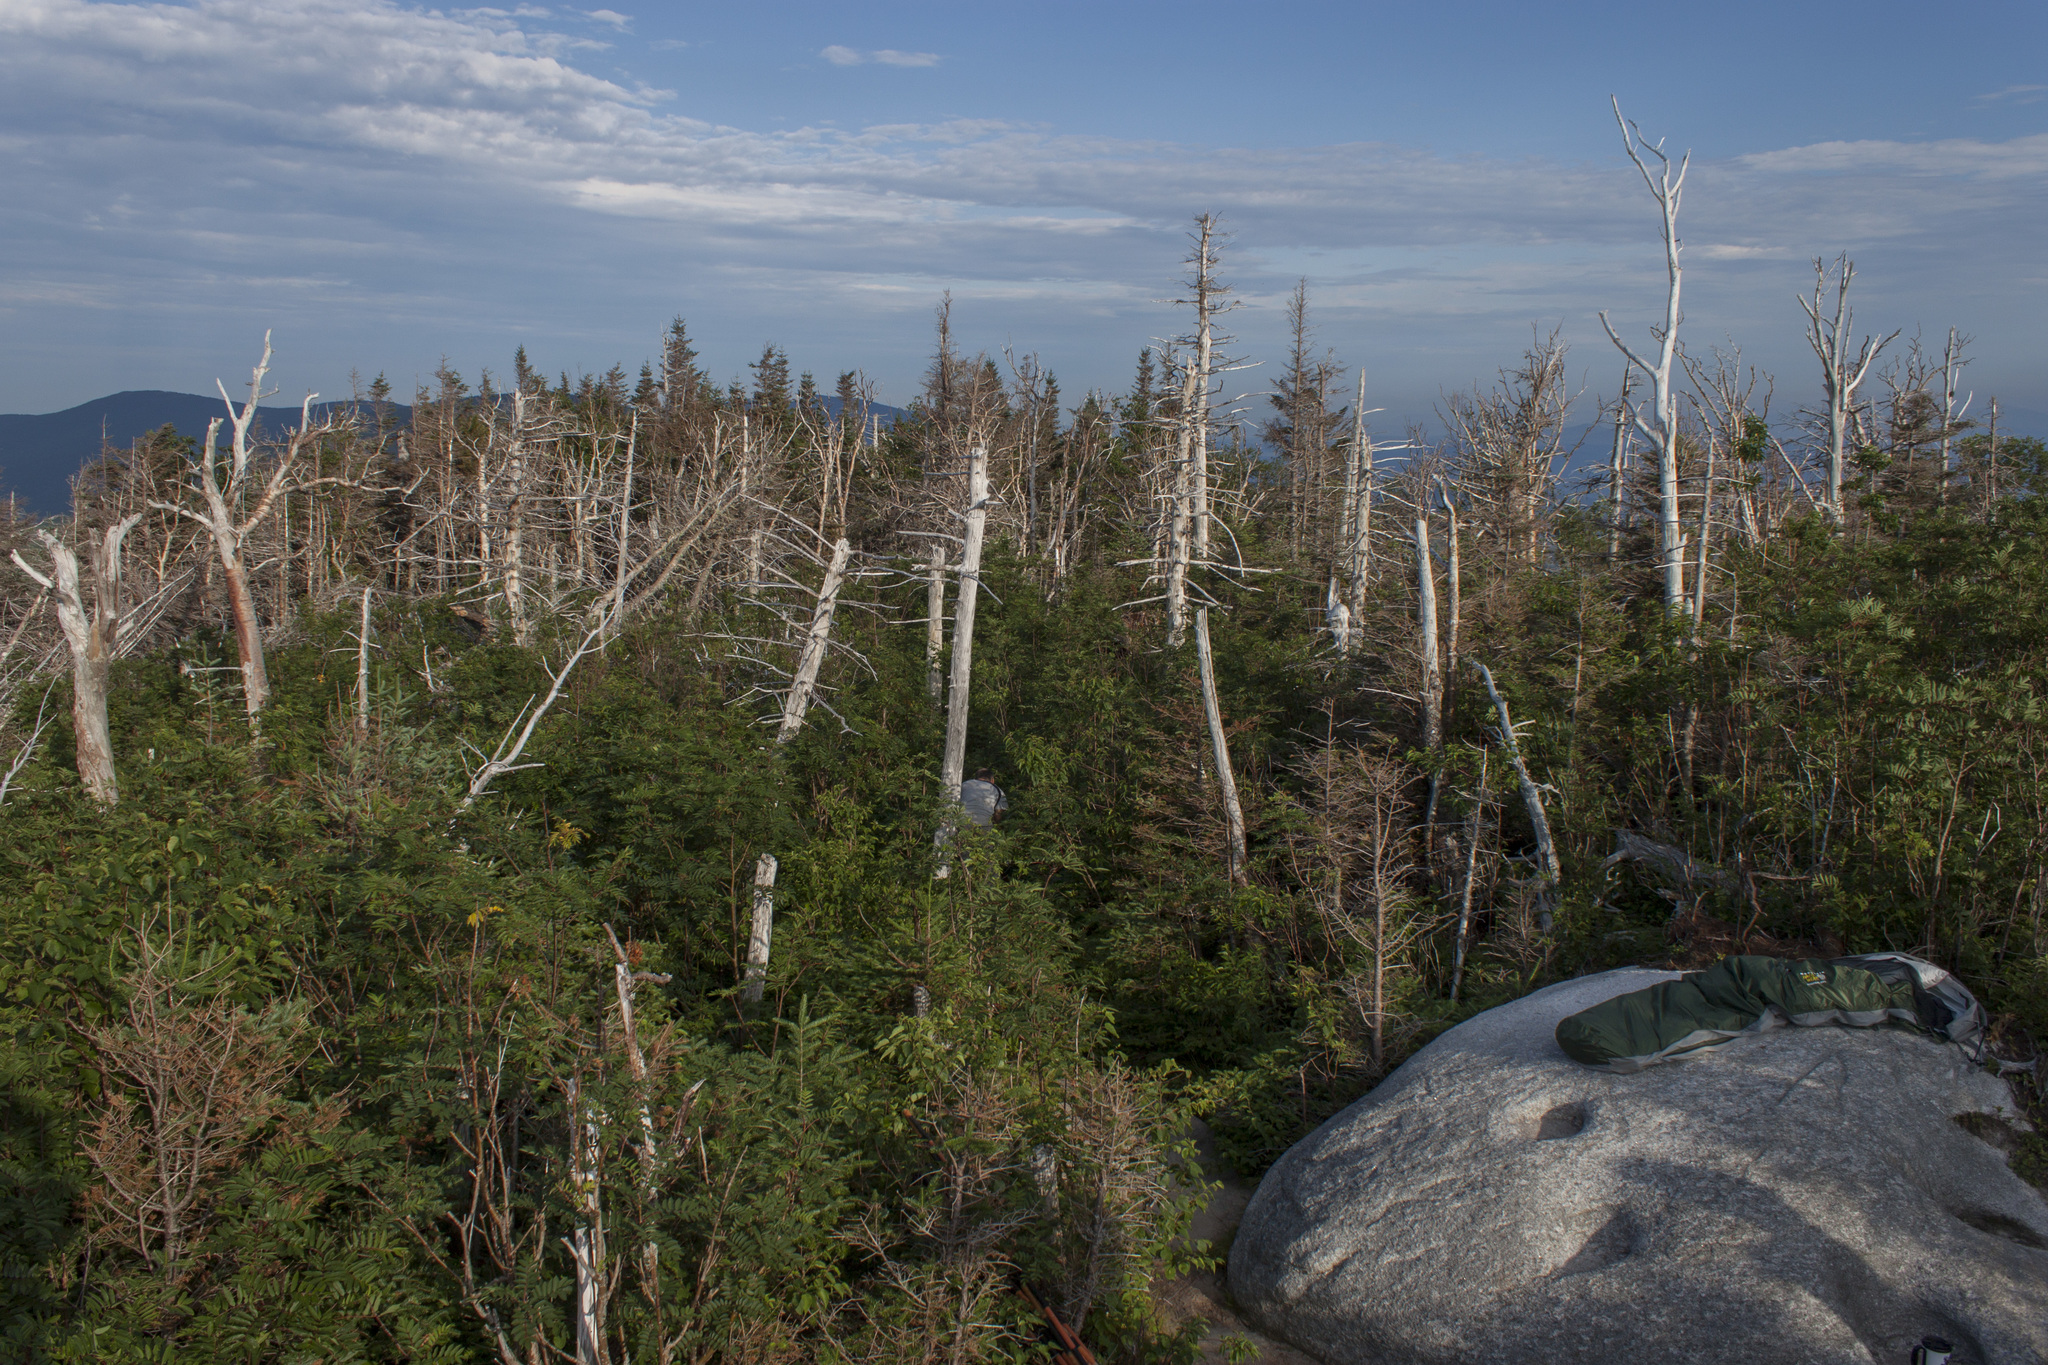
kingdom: Plantae
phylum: Tracheophyta
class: Pinopsida
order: Pinales
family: Pinaceae
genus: Abies
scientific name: Abies balsamea
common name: Balsam fir
